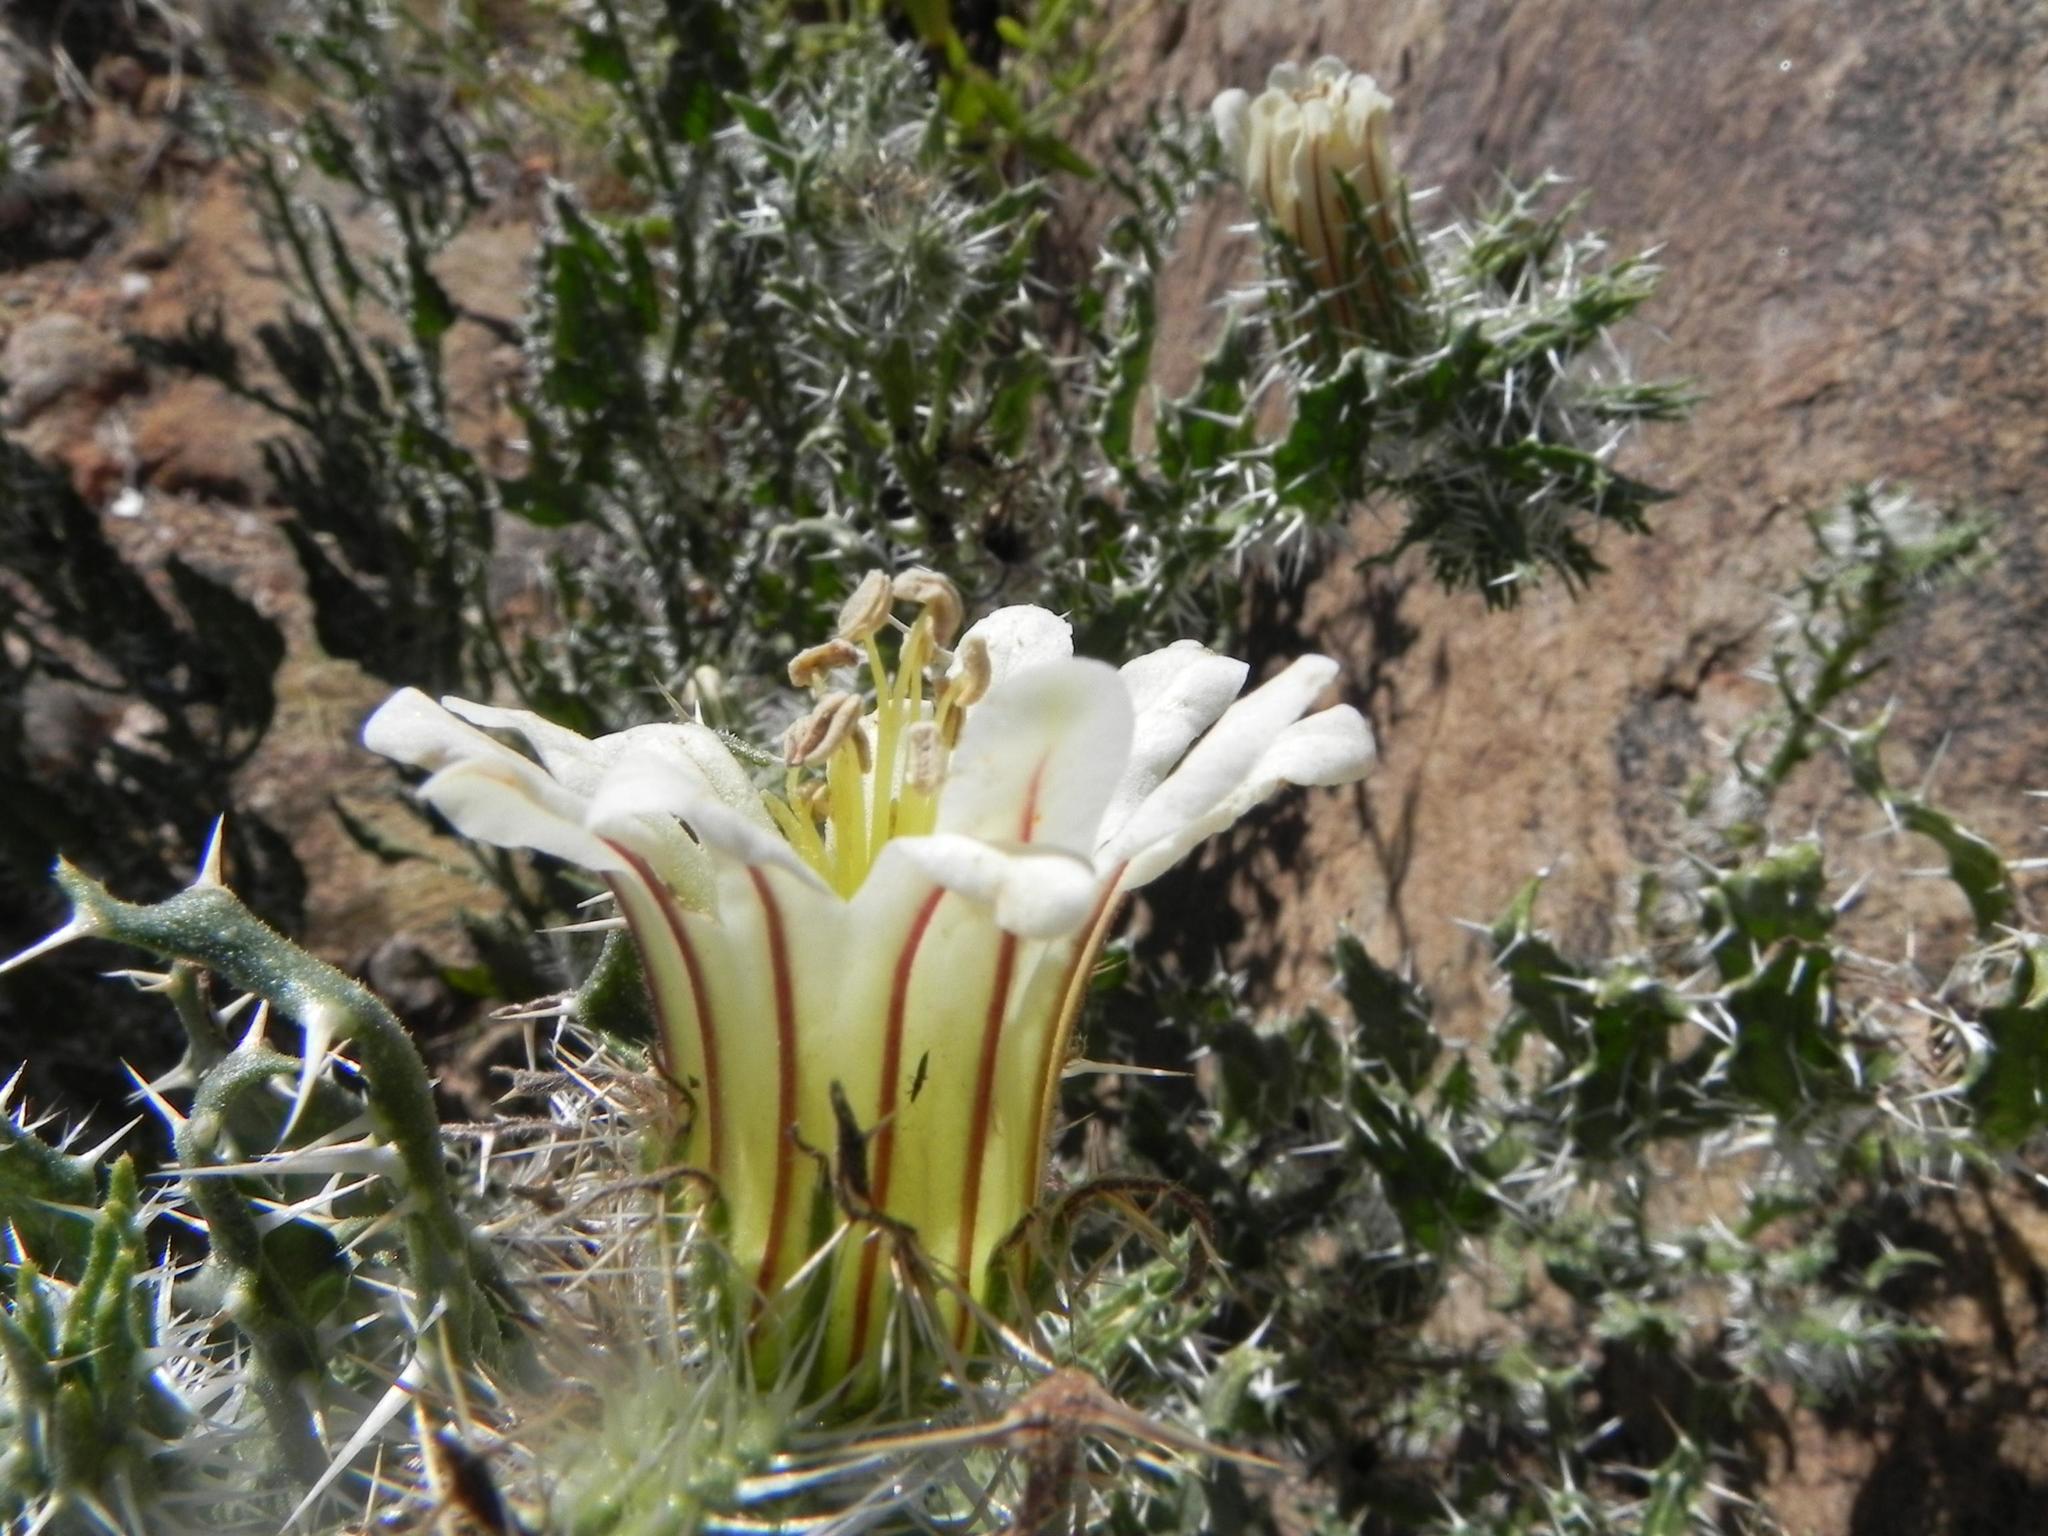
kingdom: Plantae
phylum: Tracheophyta
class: Magnoliopsida
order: Boraginales
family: Boraginaceae
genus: Codon
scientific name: Codon royenii
